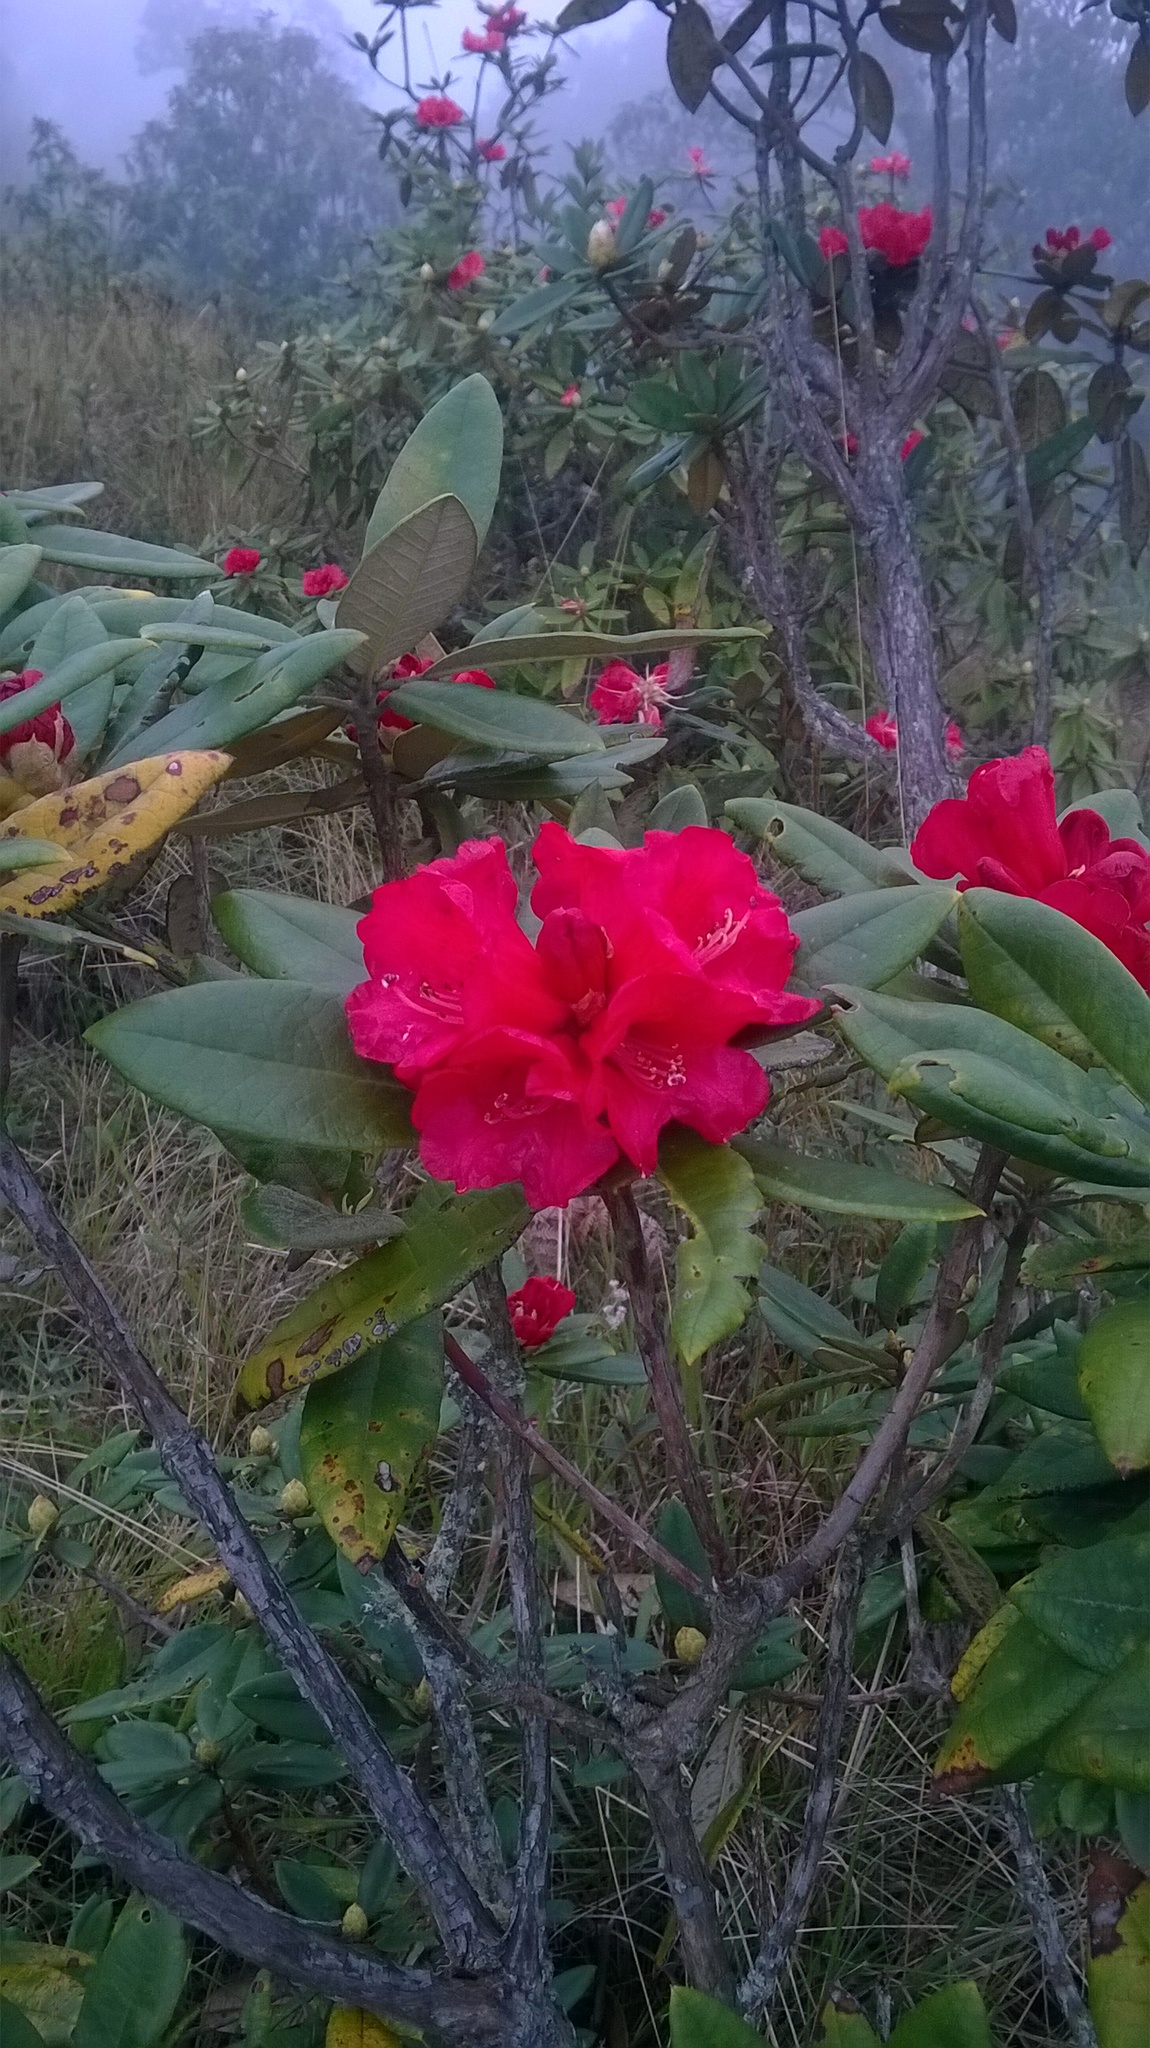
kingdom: Plantae
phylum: Tracheophyta
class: Magnoliopsida
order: Ericales
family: Ericaceae
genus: Rhododendron
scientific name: Rhododendron arboreum
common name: Tree rhododendron
